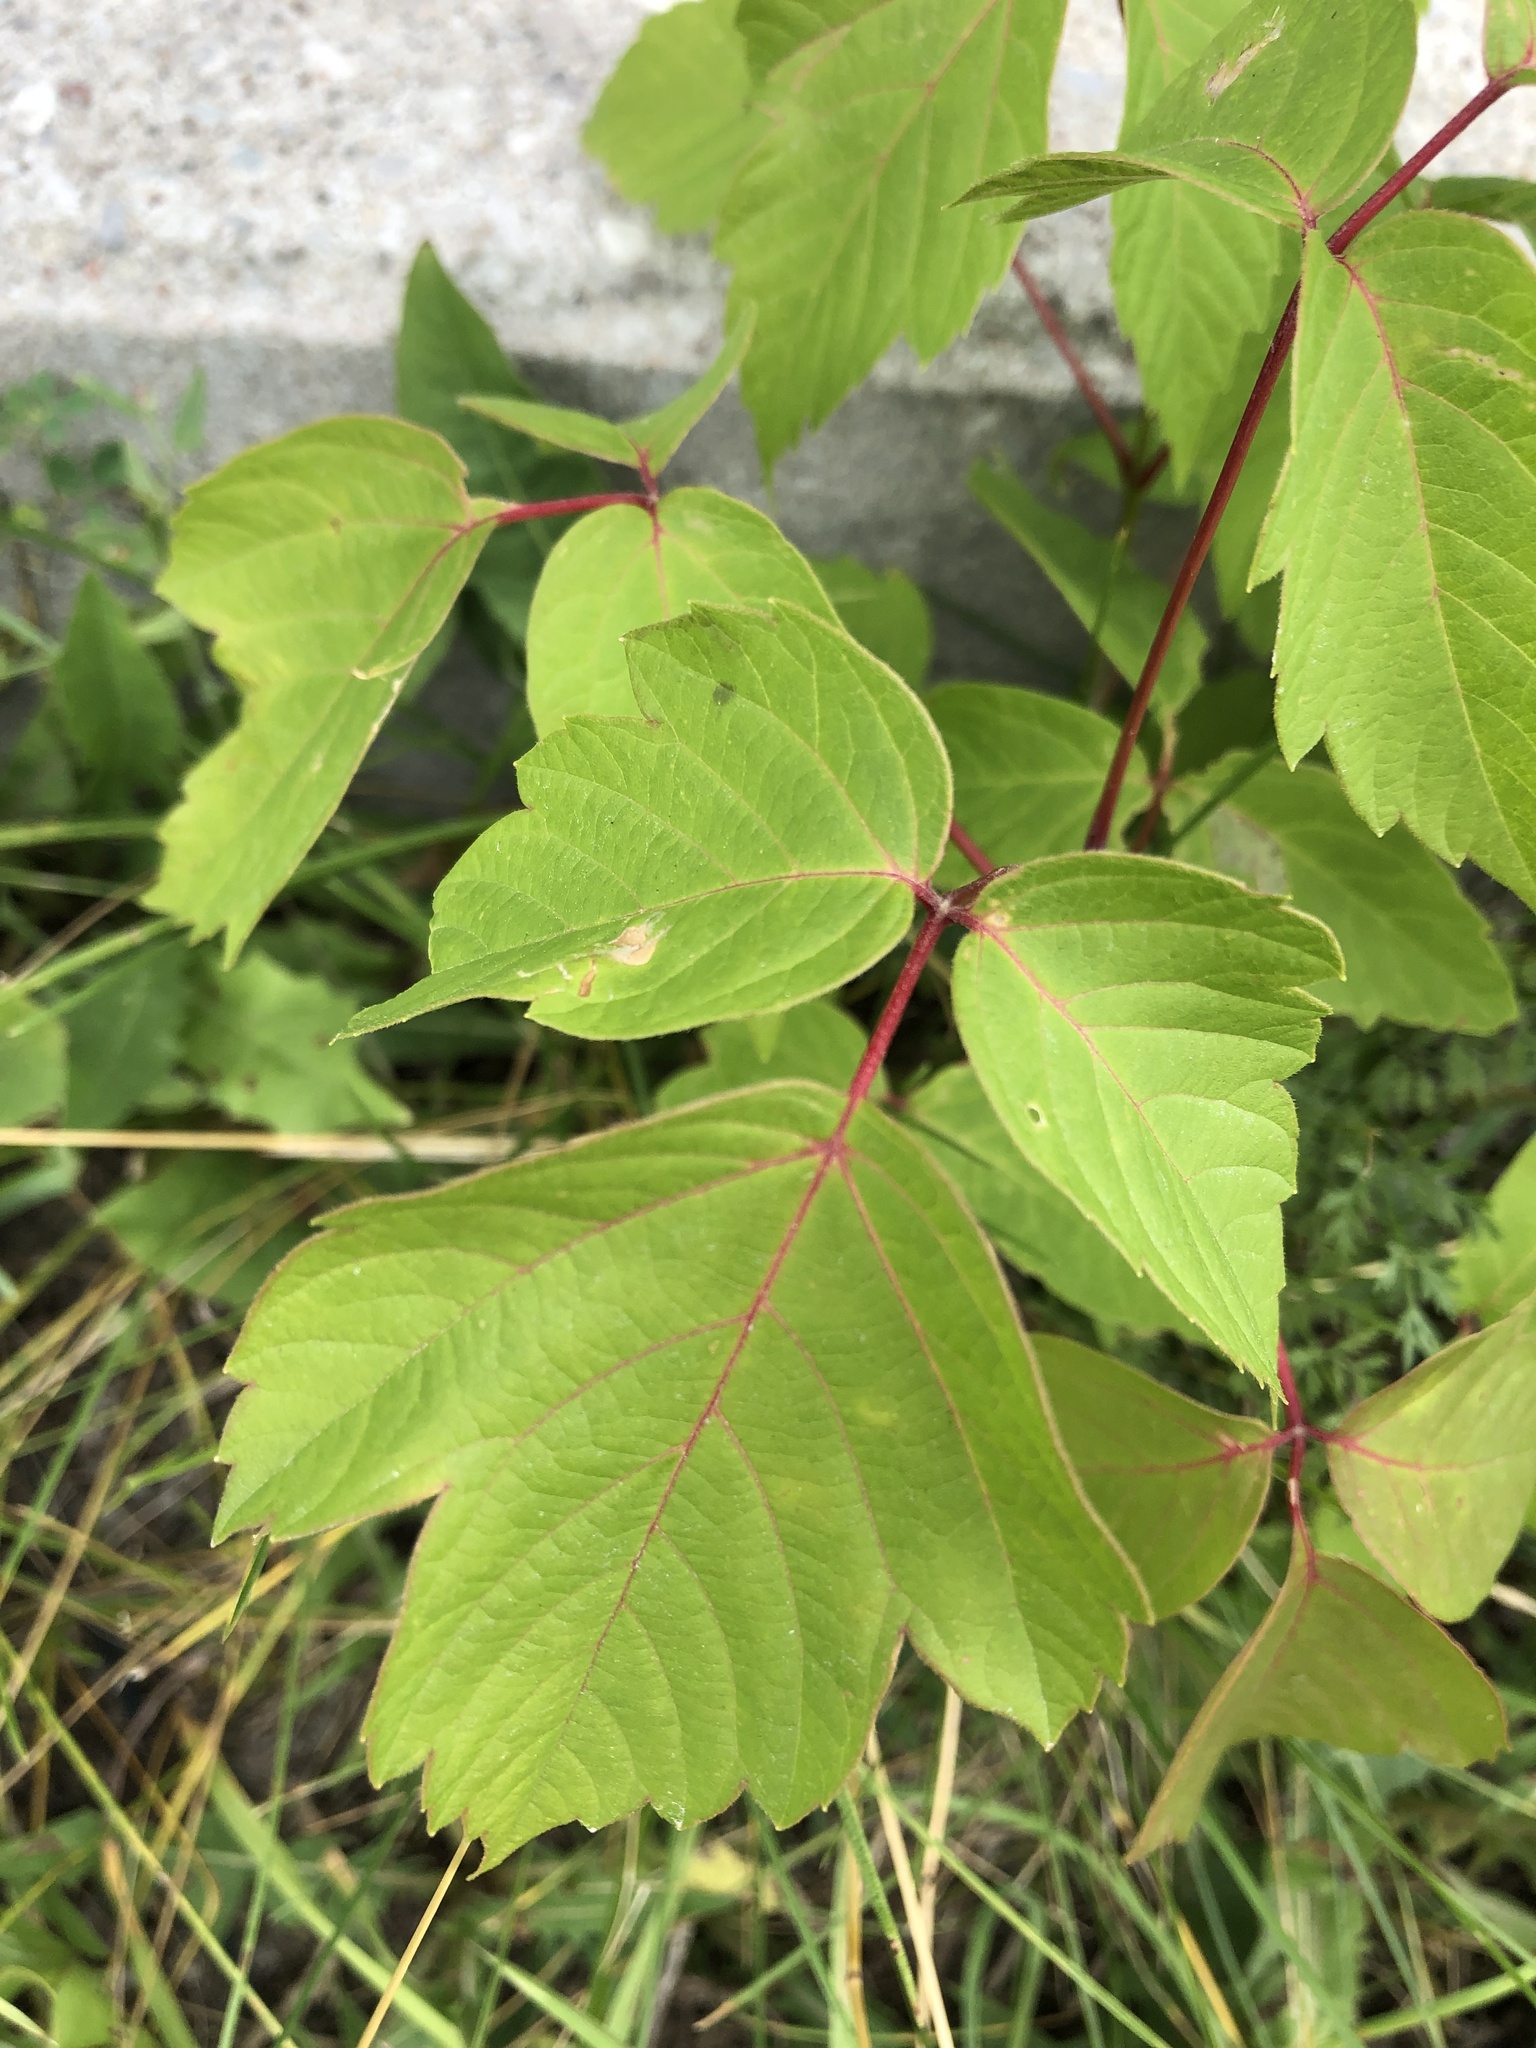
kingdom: Plantae
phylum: Tracheophyta
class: Magnoliopsida
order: Sapindales
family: Sapindaceae
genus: Acer
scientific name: Acer negundo
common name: Ashleaf maple
